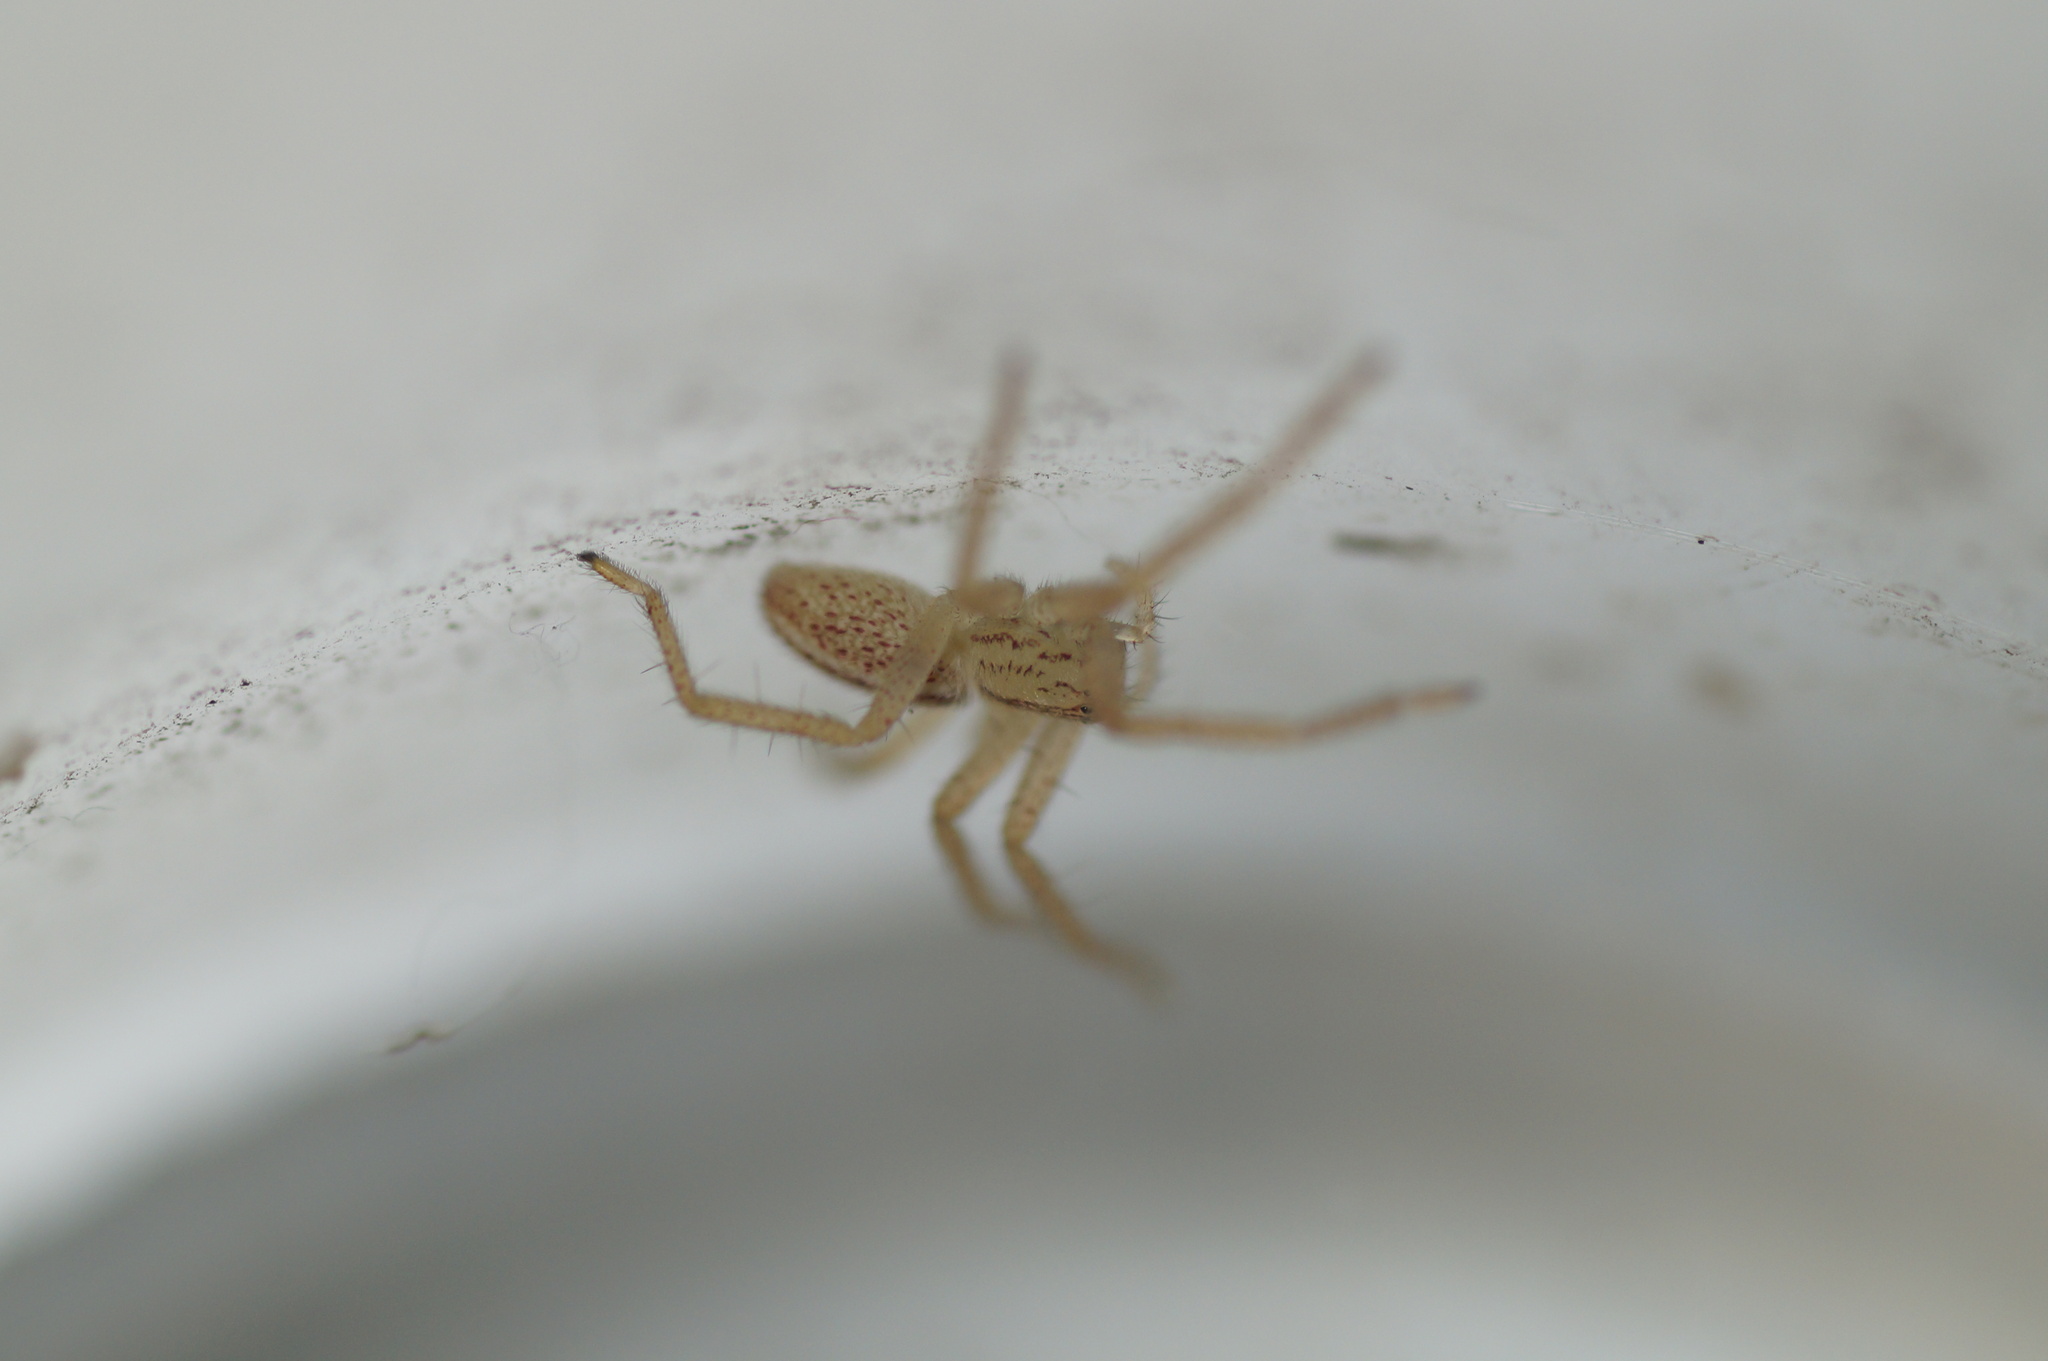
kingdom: Animalia
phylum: Arthropoda
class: Arachnida
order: Araneae
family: Sparassidae
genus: Micrommata
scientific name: Micrommata virescens
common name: Green spider
